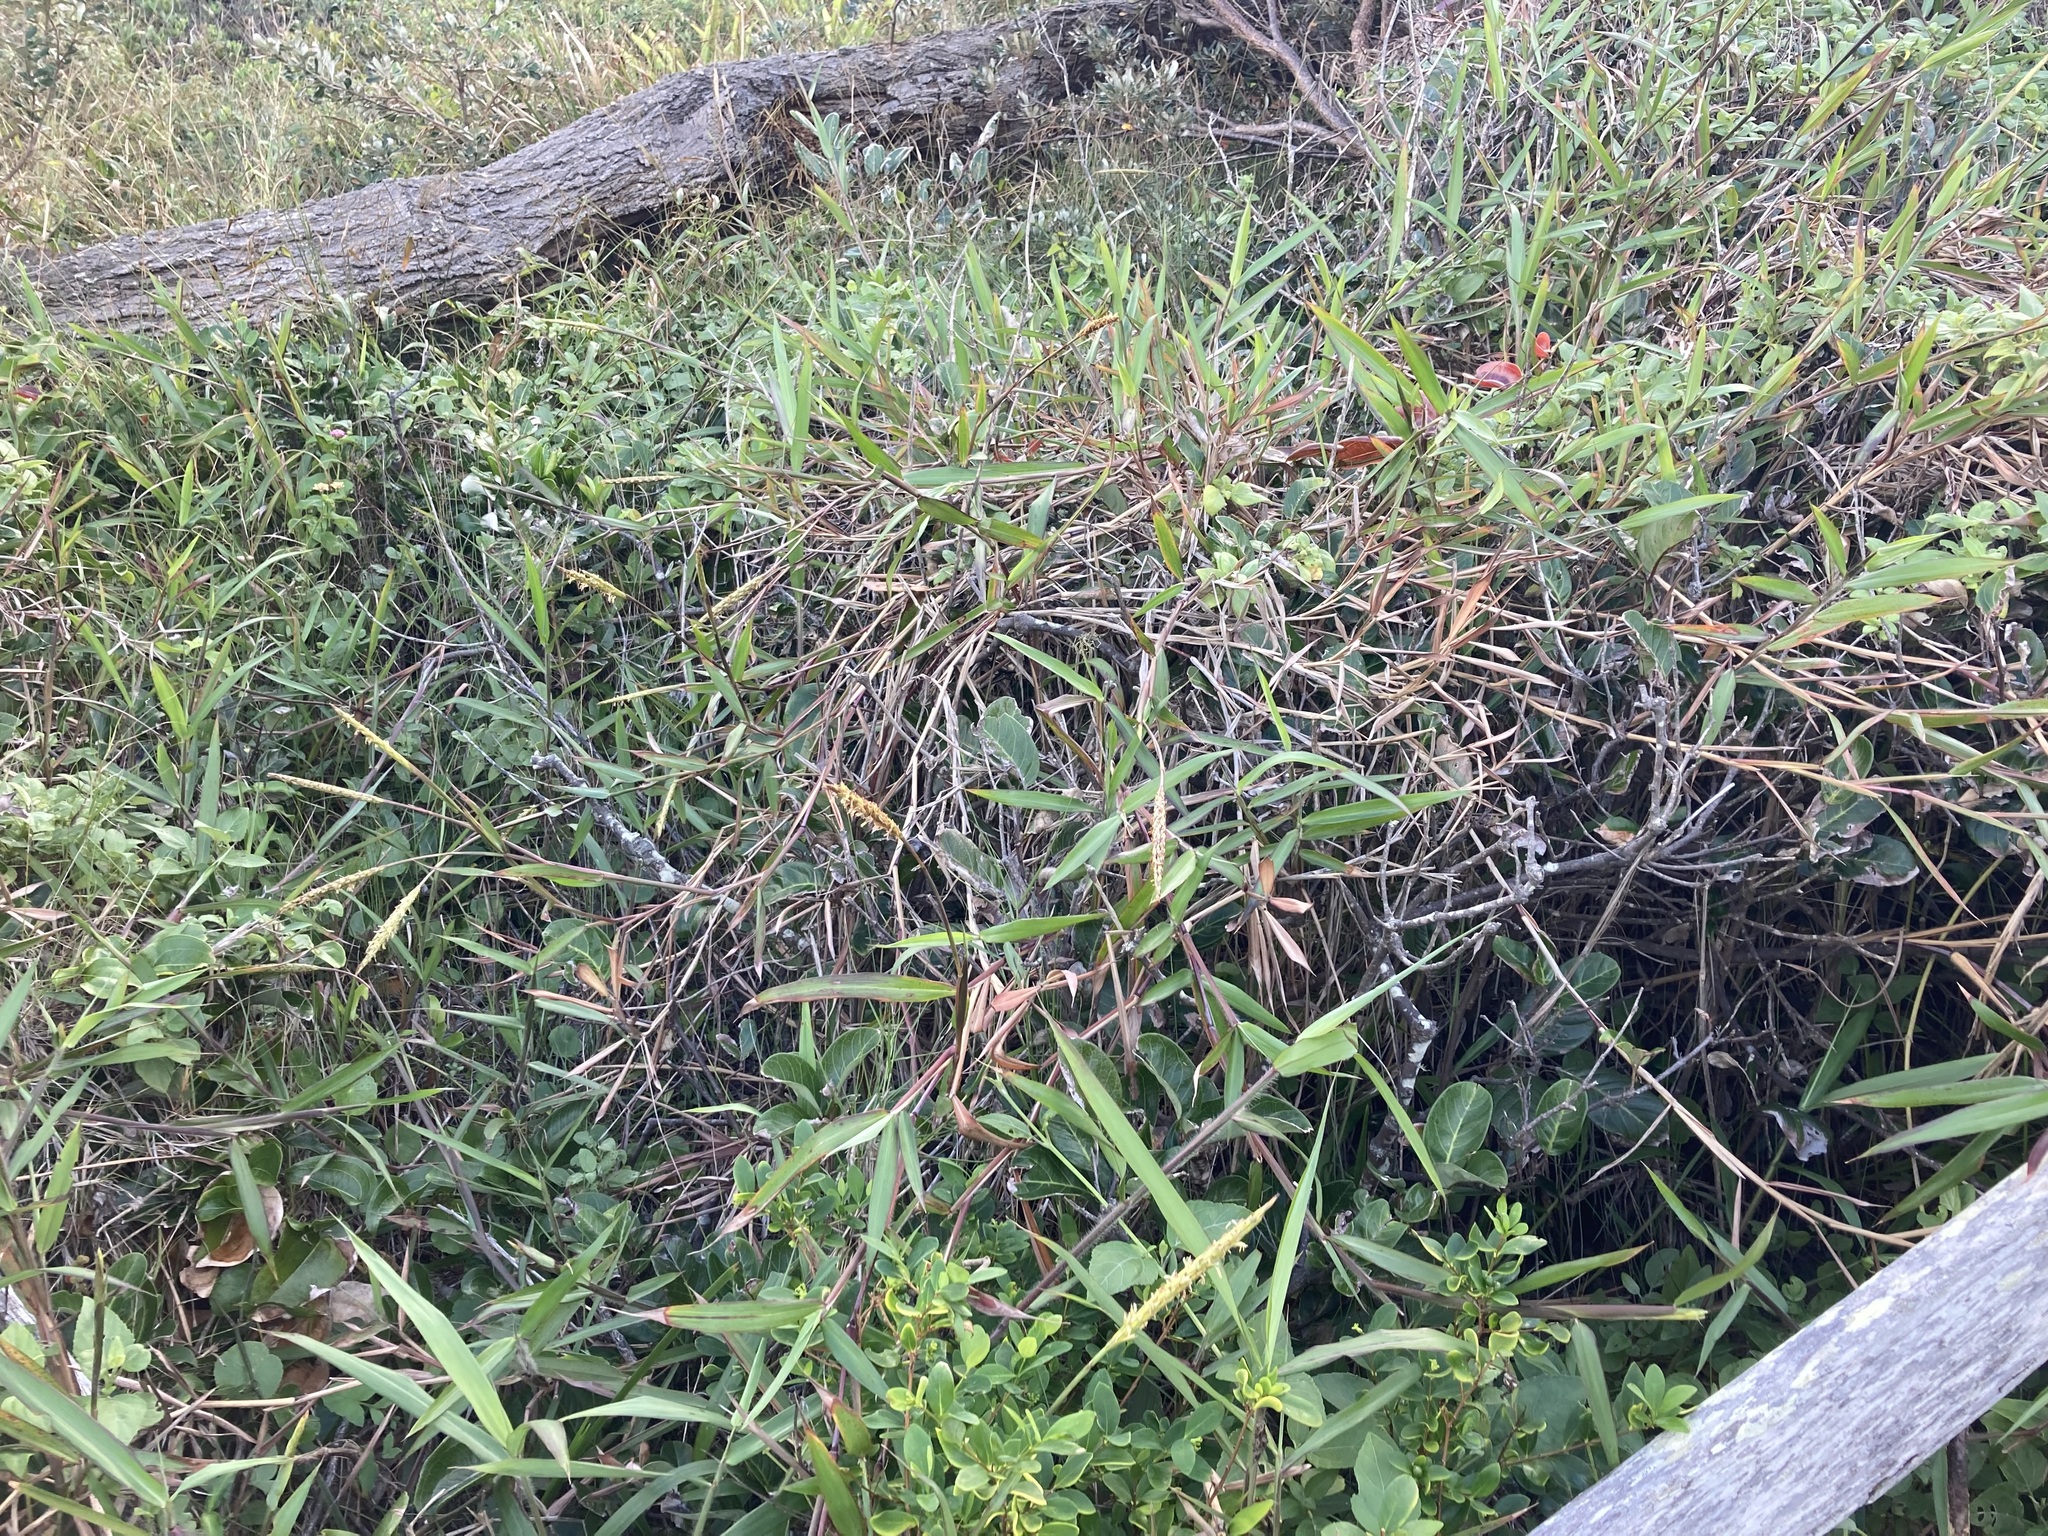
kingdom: Plantae
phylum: Tracheophyta
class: Liliopsida
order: Poales
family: Poaceae
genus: Ischaemum
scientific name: Ischaemum triticeum
